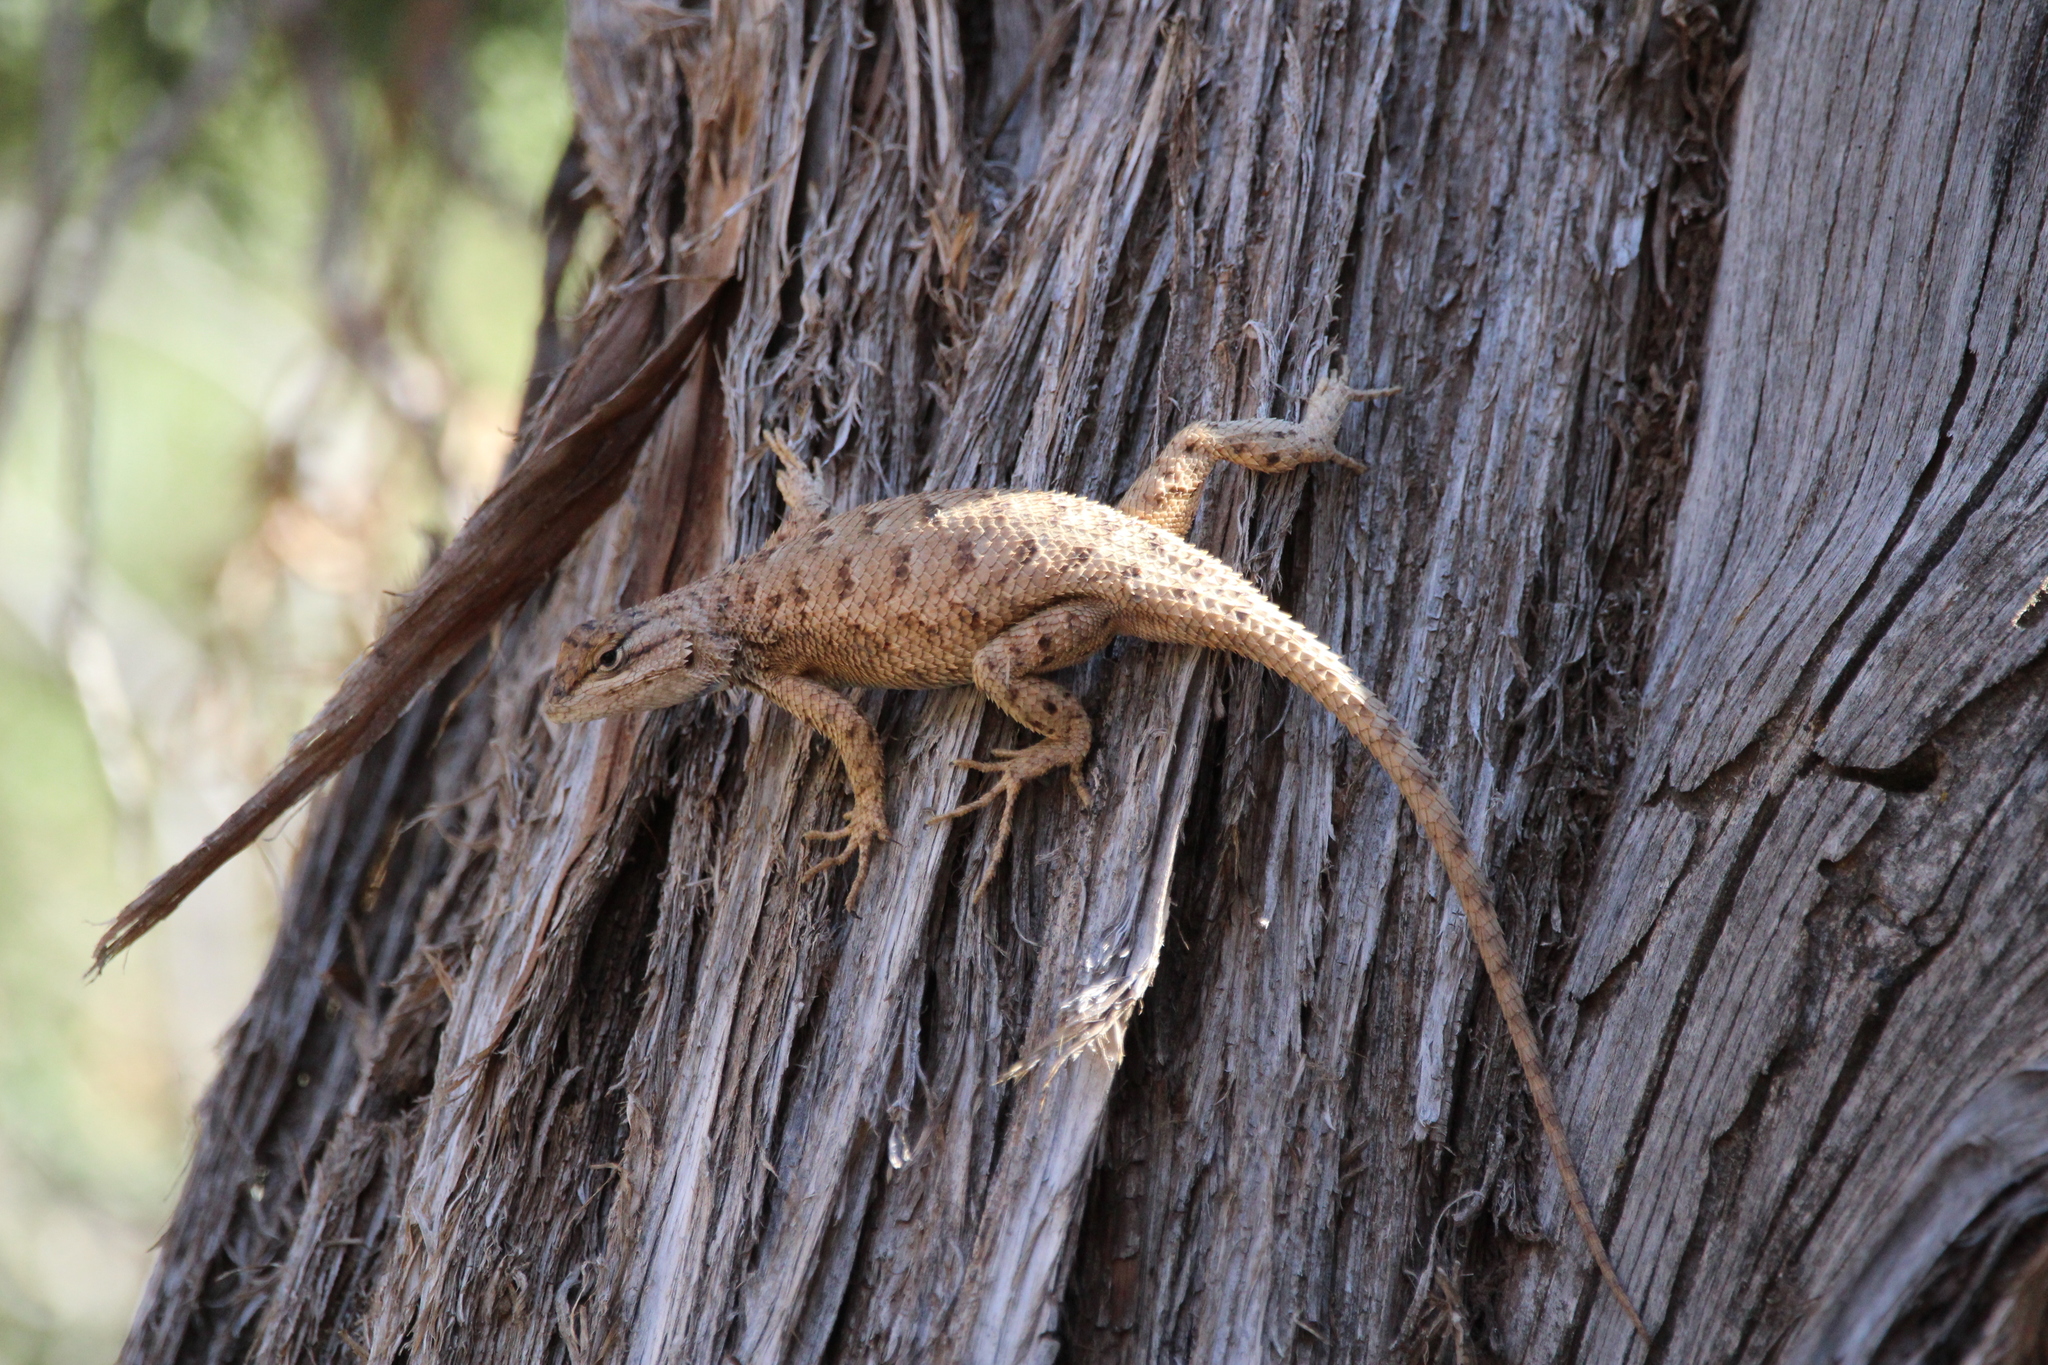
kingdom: Animalia
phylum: Chordata
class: Squamata
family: Phrynosomatidae
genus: Sceloporus
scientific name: Sceloporus tristichus
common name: Plateau fence lizard
